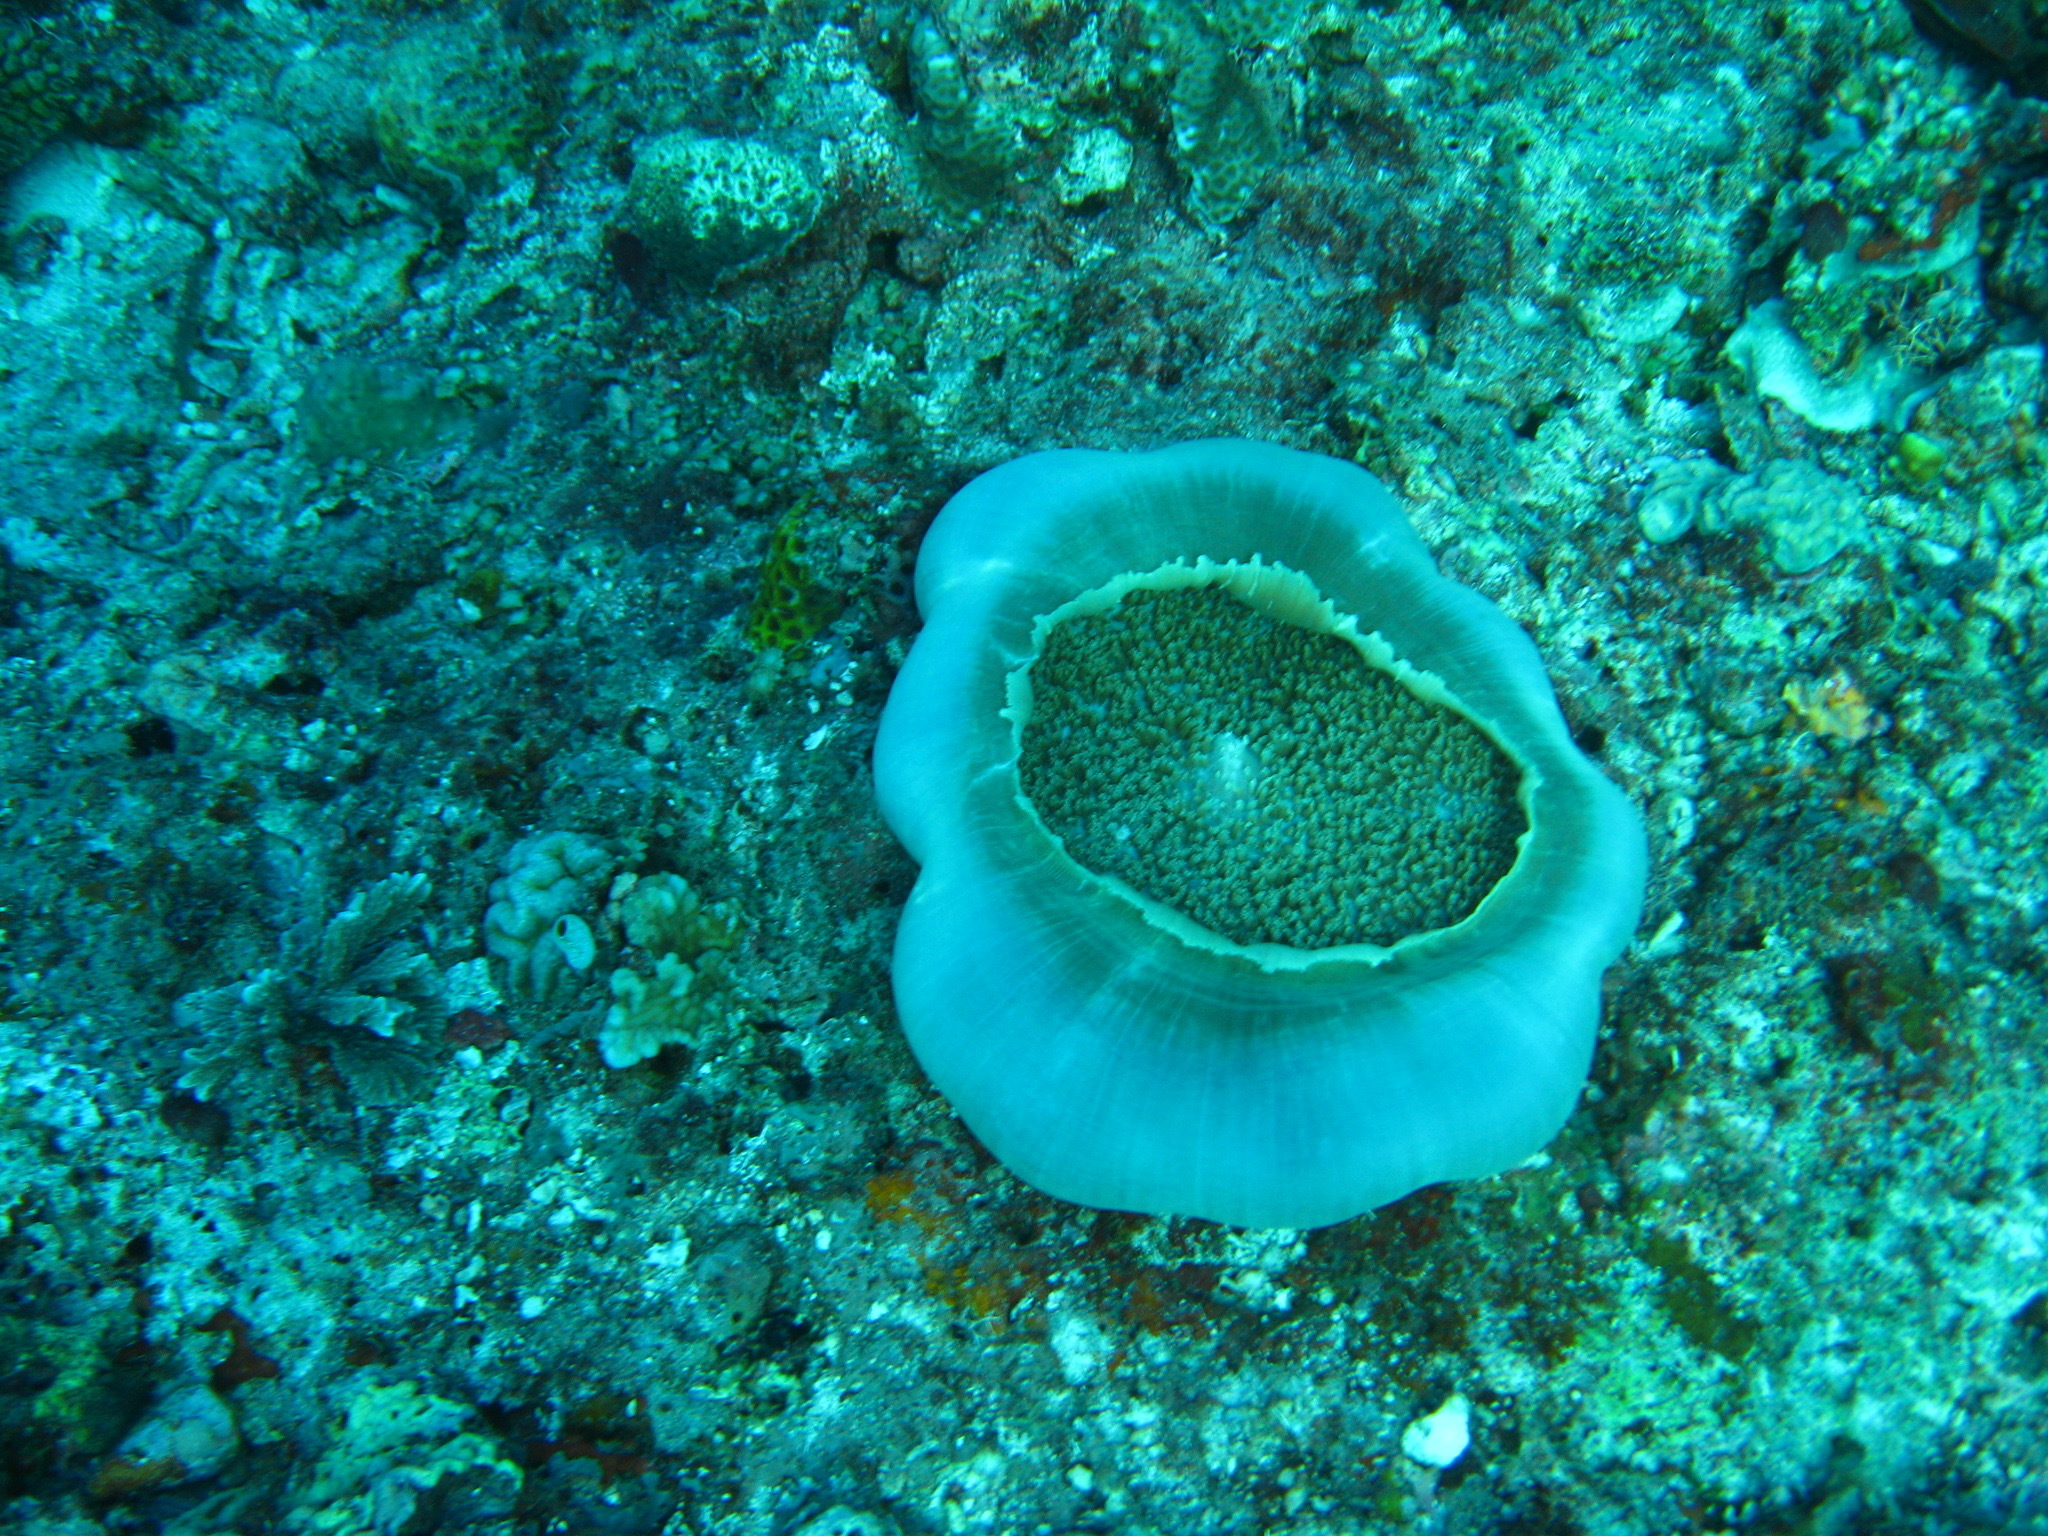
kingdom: Animalia
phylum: Cnidaria
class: Anthozoa
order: Corallimorpharia
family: Discosomidae
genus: Amplexidiscus
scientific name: Amplexidiscus fenestrafer
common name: Elephant ear anemone
